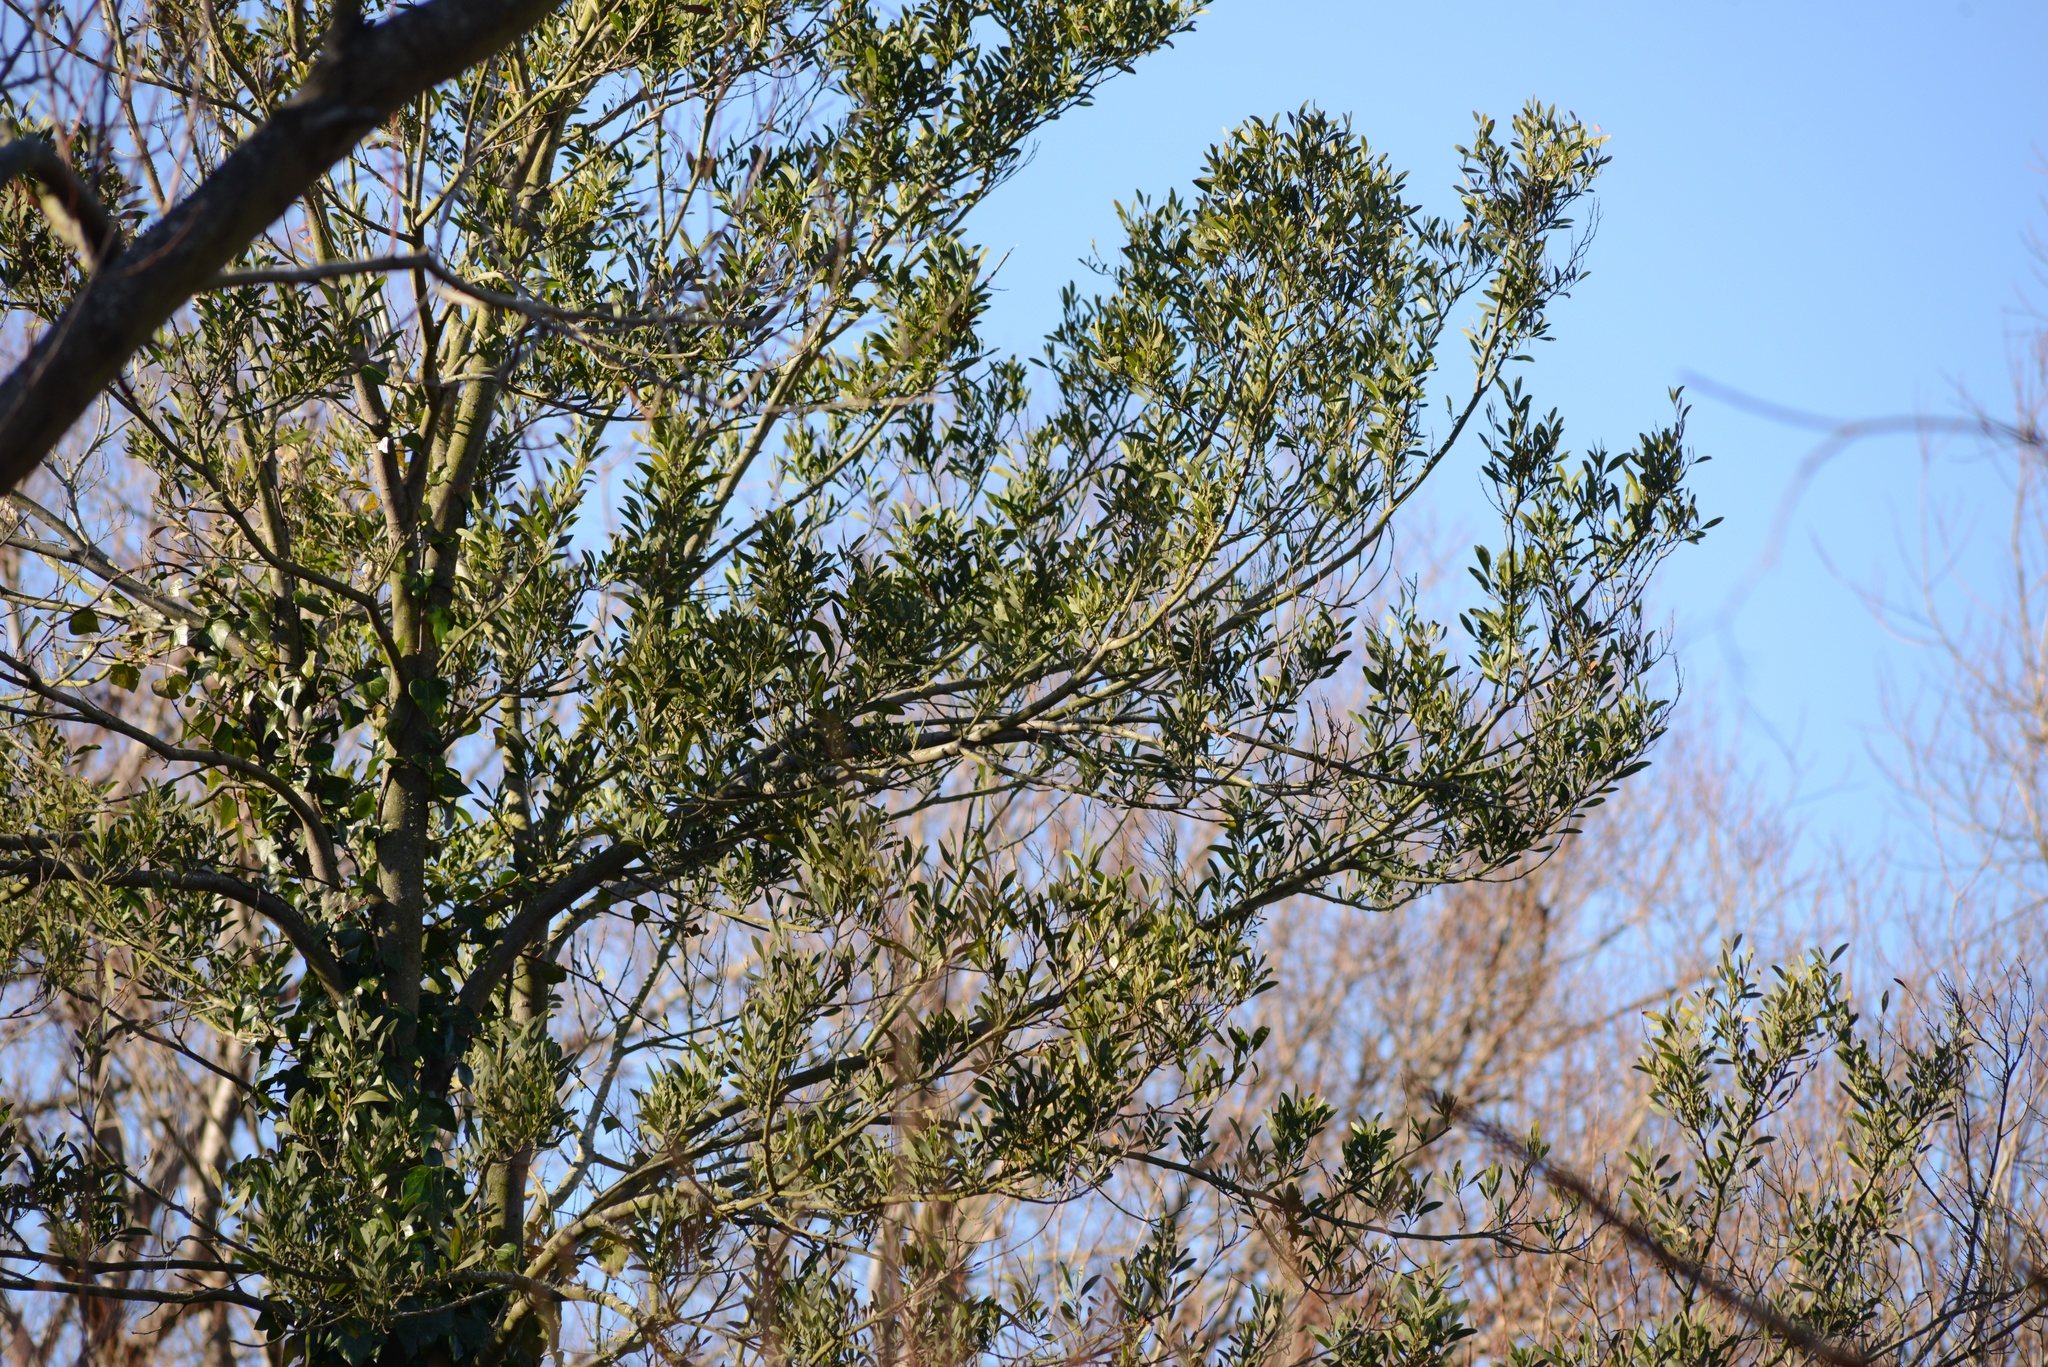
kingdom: Plantae
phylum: Tracheophyta
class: Magnoliopsida
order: Fabales
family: Fabaceae
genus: Acacia
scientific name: Acacia melanoxylon
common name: Blackwood
